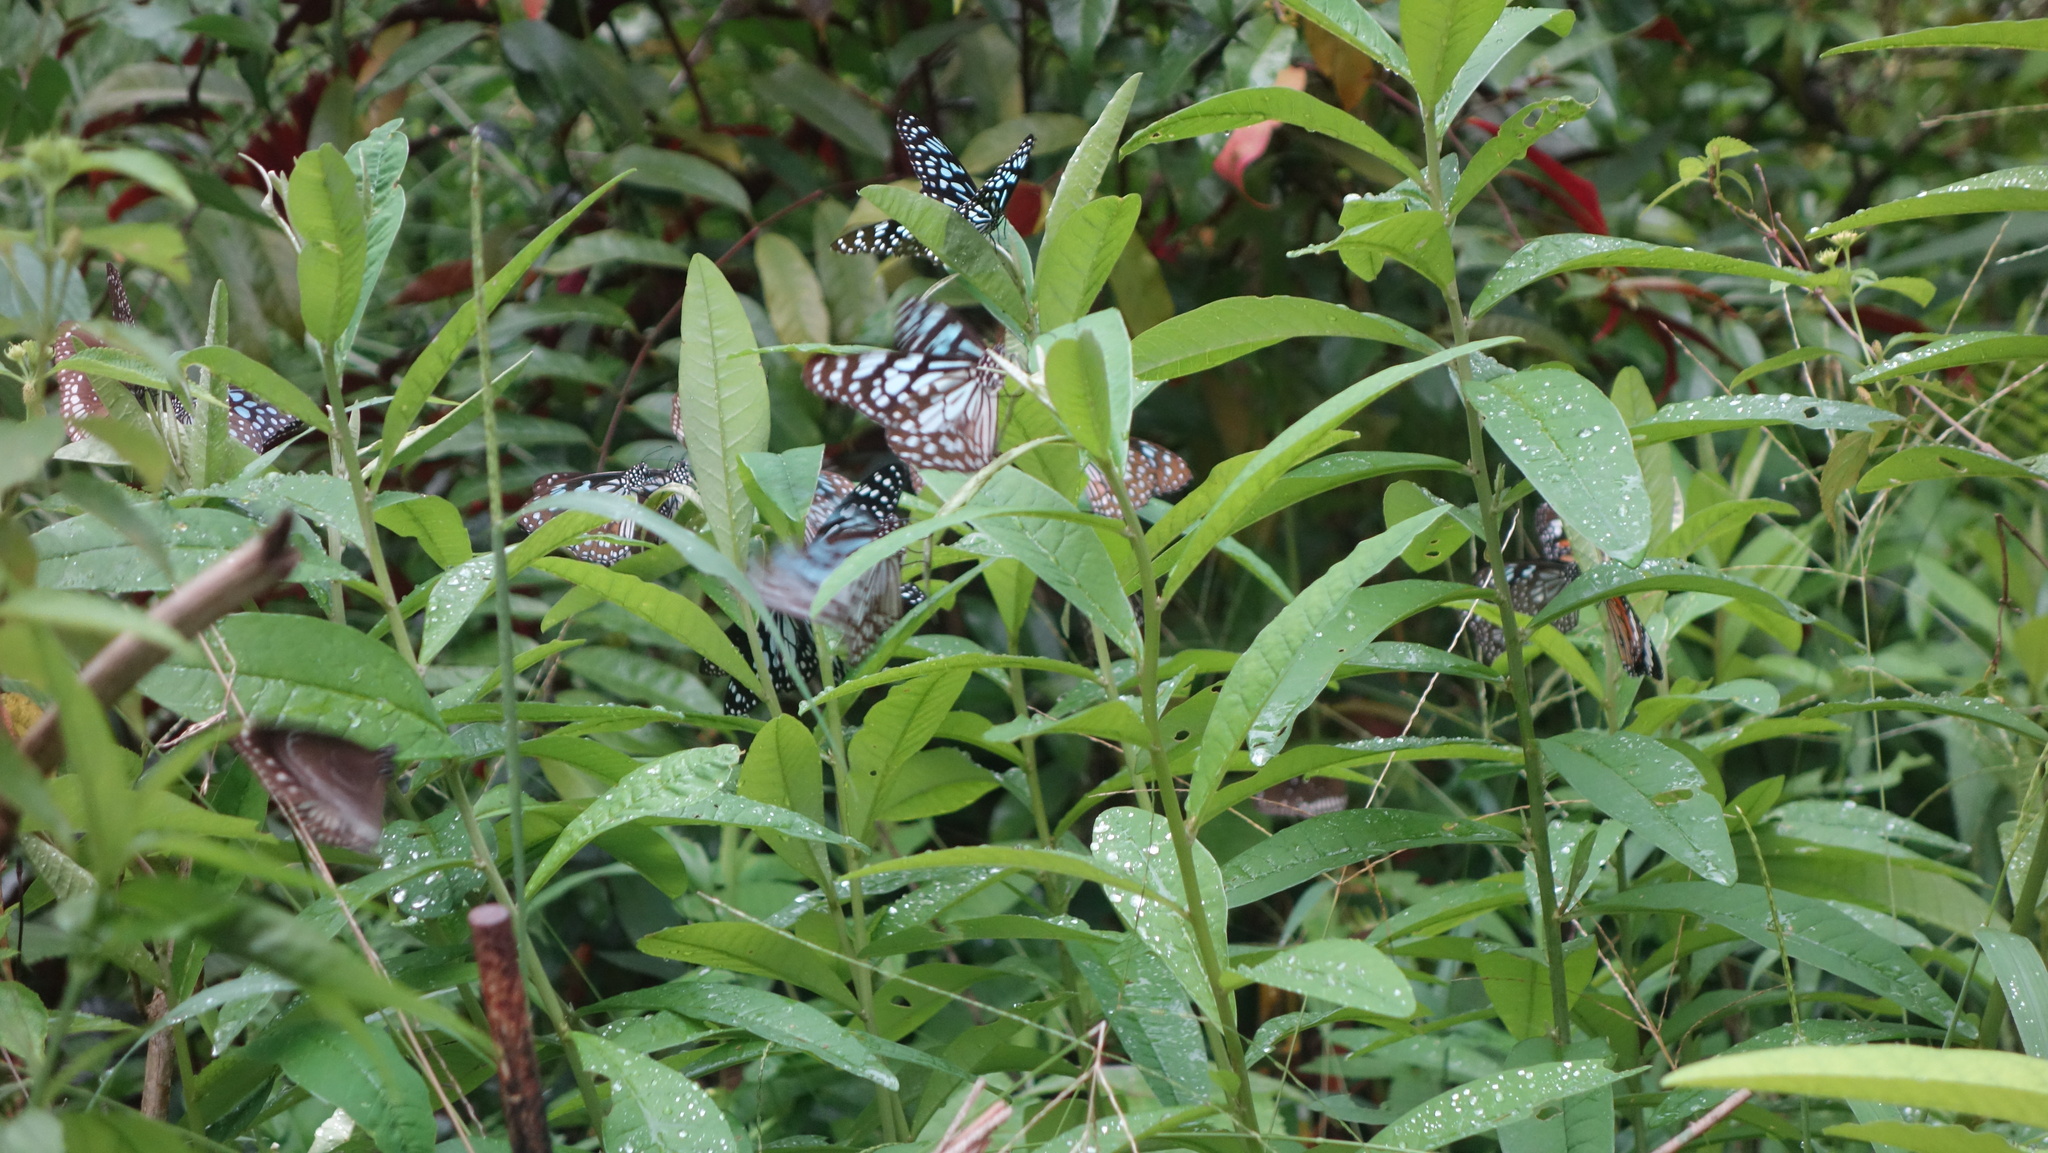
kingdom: Animalia
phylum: Arthropoda
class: Insecta
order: Lepidoptera
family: Nymphalidae
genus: Tirumala
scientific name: Tirumala limniace
